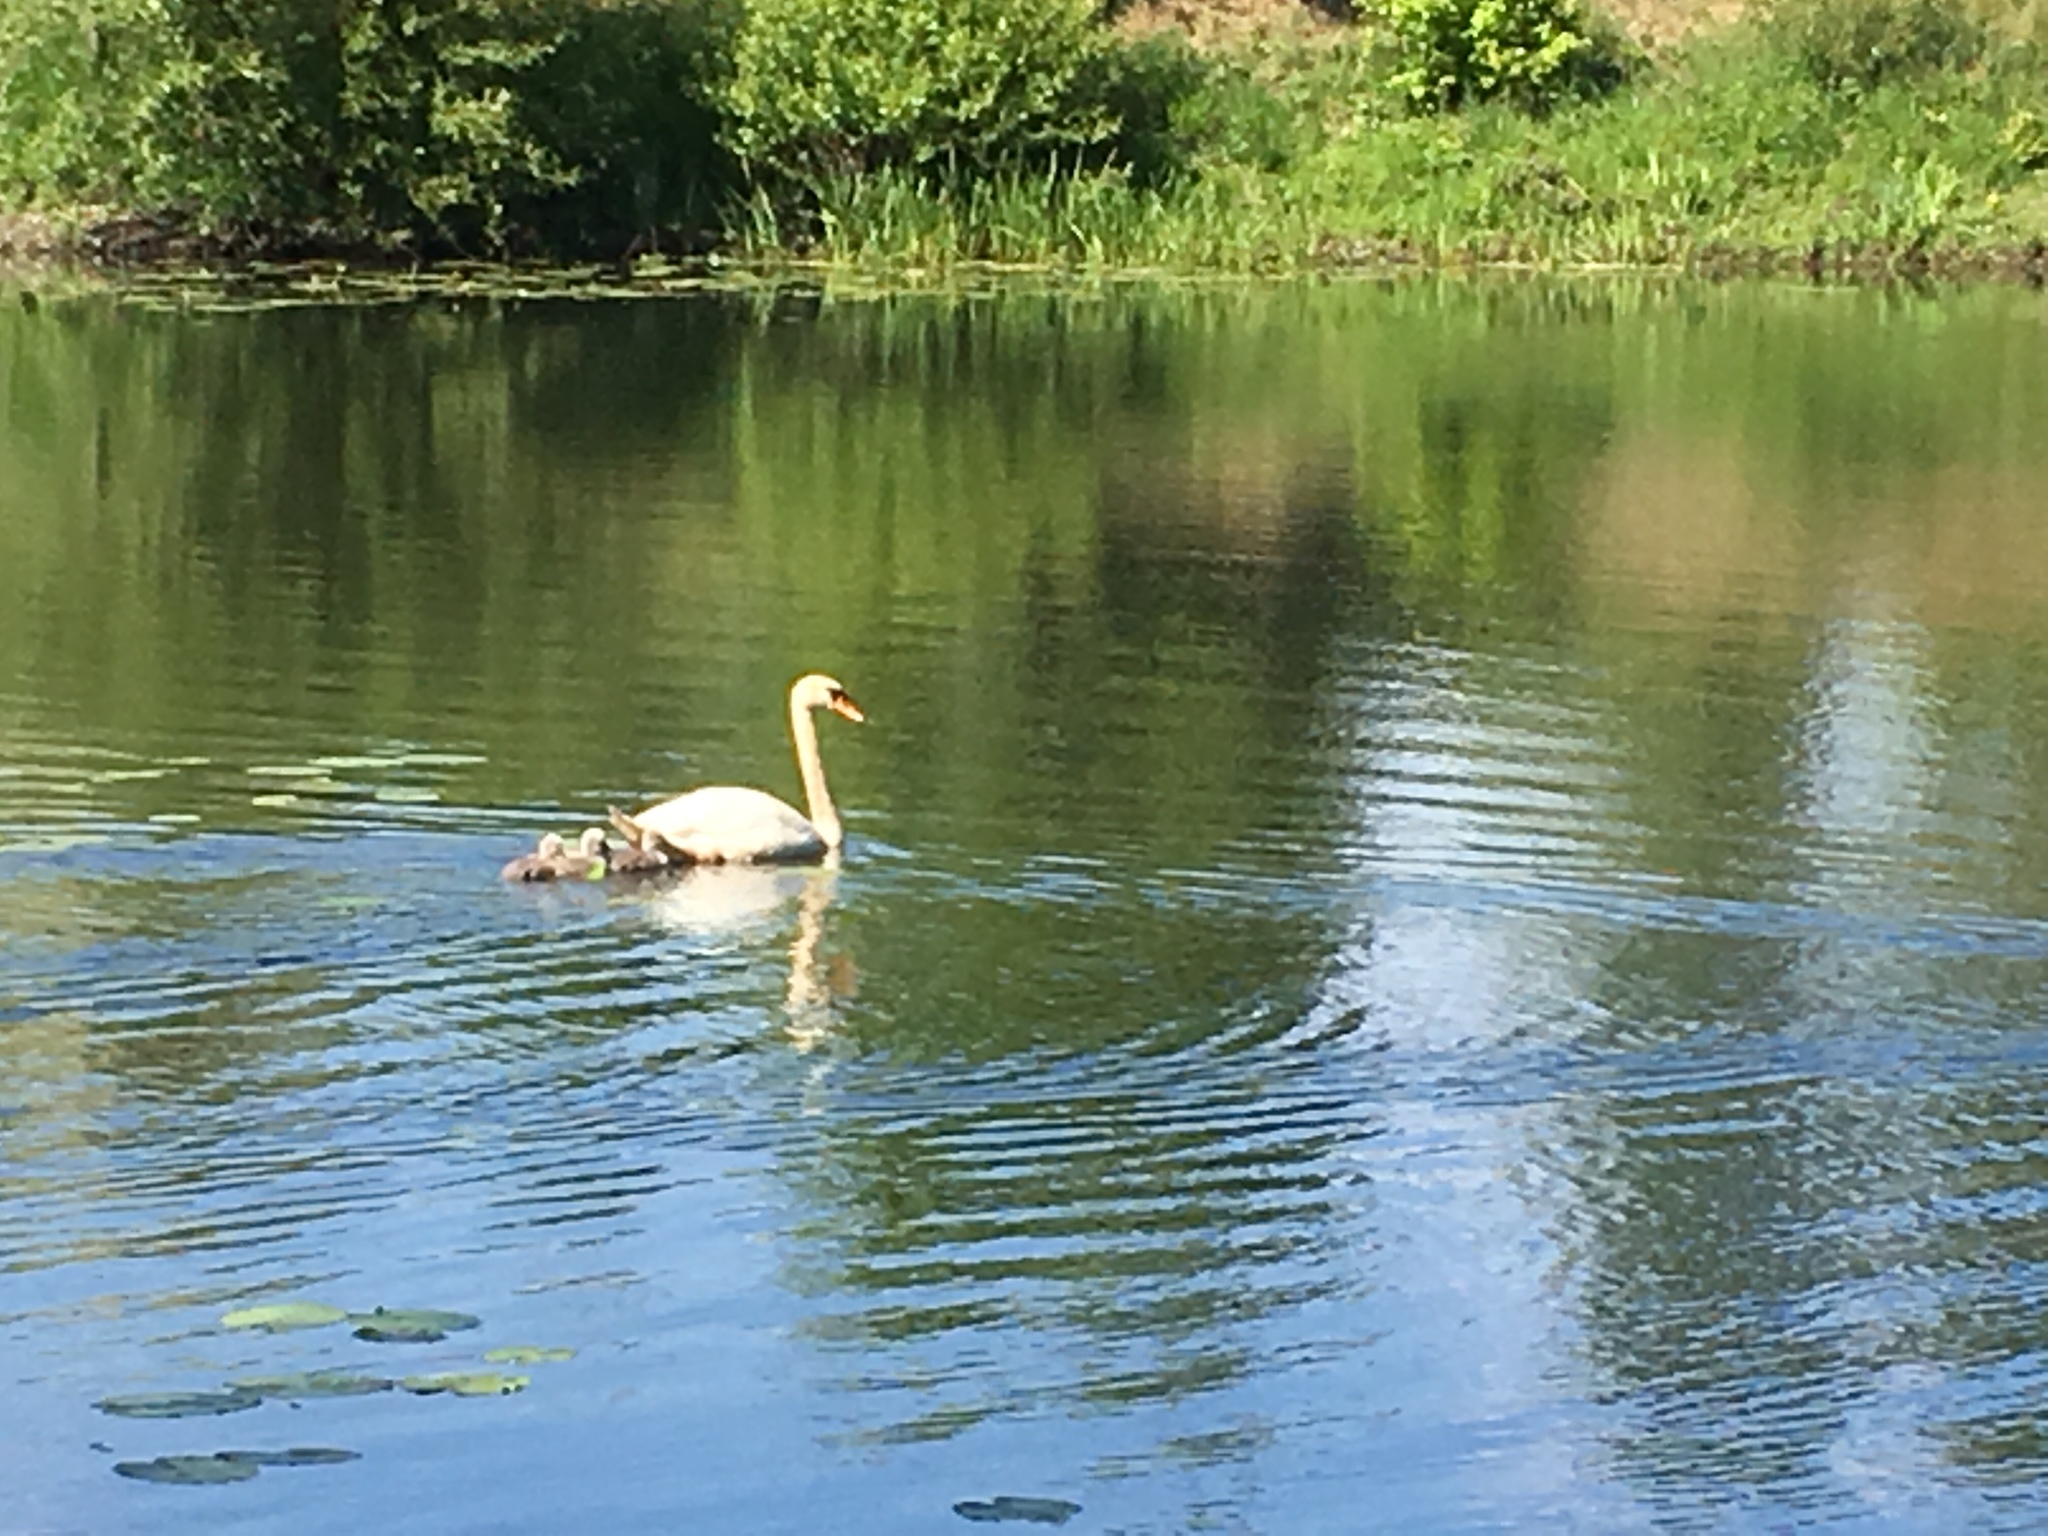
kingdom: Animalia
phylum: Chordata
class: Aves
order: Anseriformes
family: Anatidae
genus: Cygnus
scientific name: Cygnus olor
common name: Mute swan
